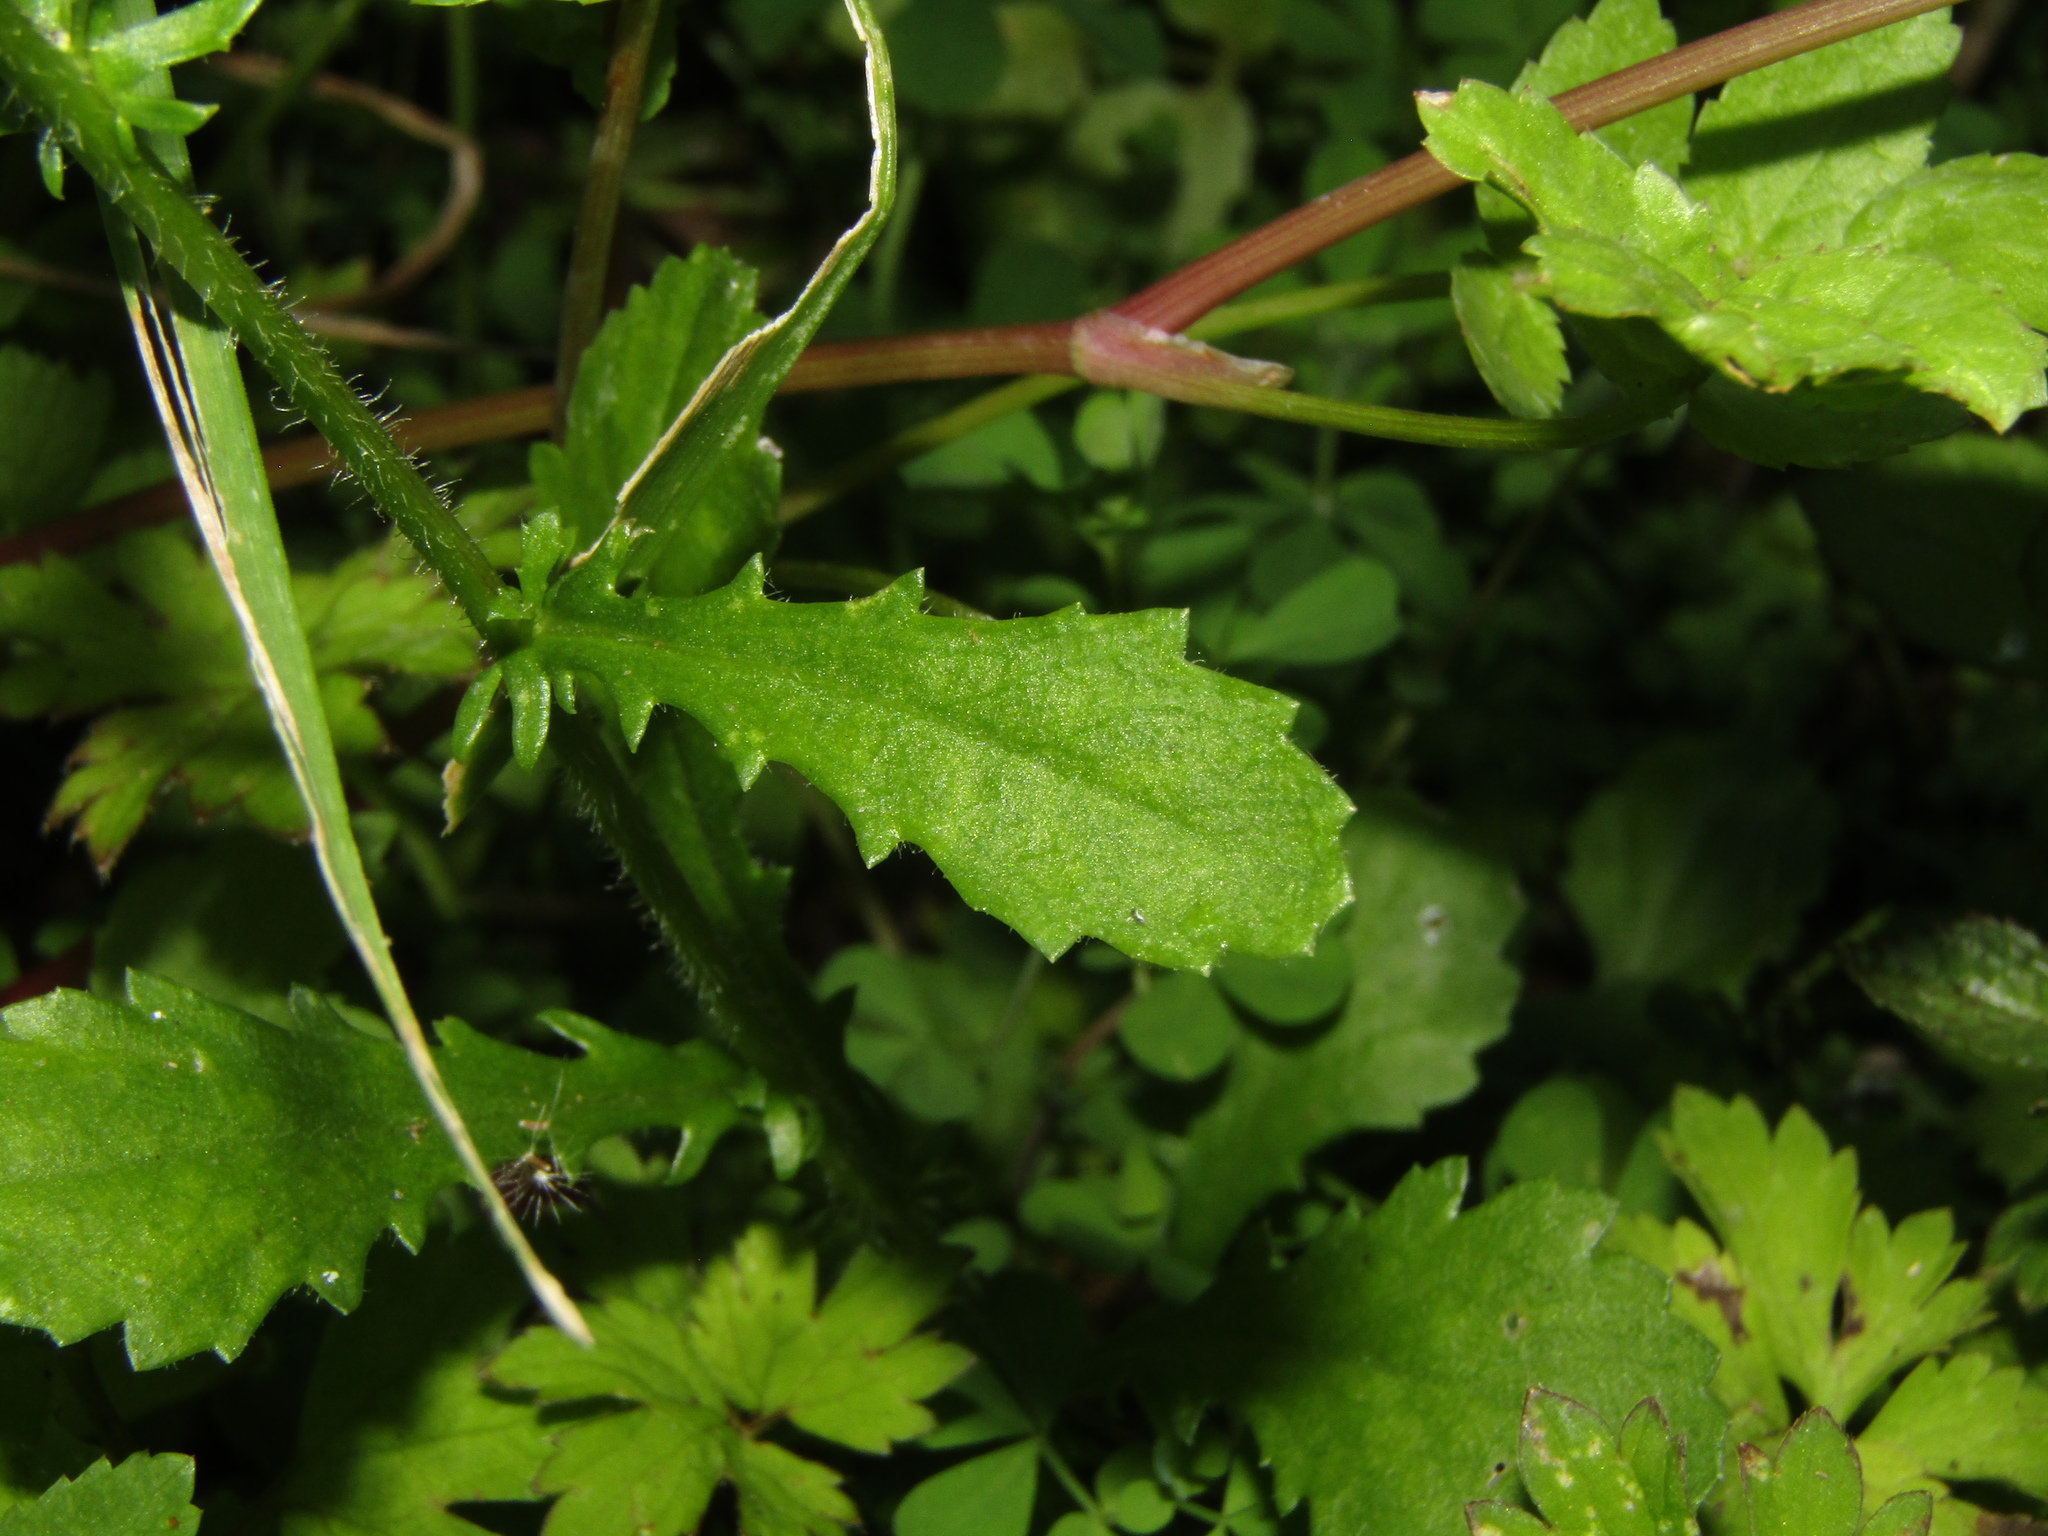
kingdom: Plantae
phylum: Tracheophyta
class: Magnoliopsida
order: Asterales
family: Asteraceae
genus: Leucanthemum
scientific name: Leucanthemum maximum
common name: Max chrysanthemum
